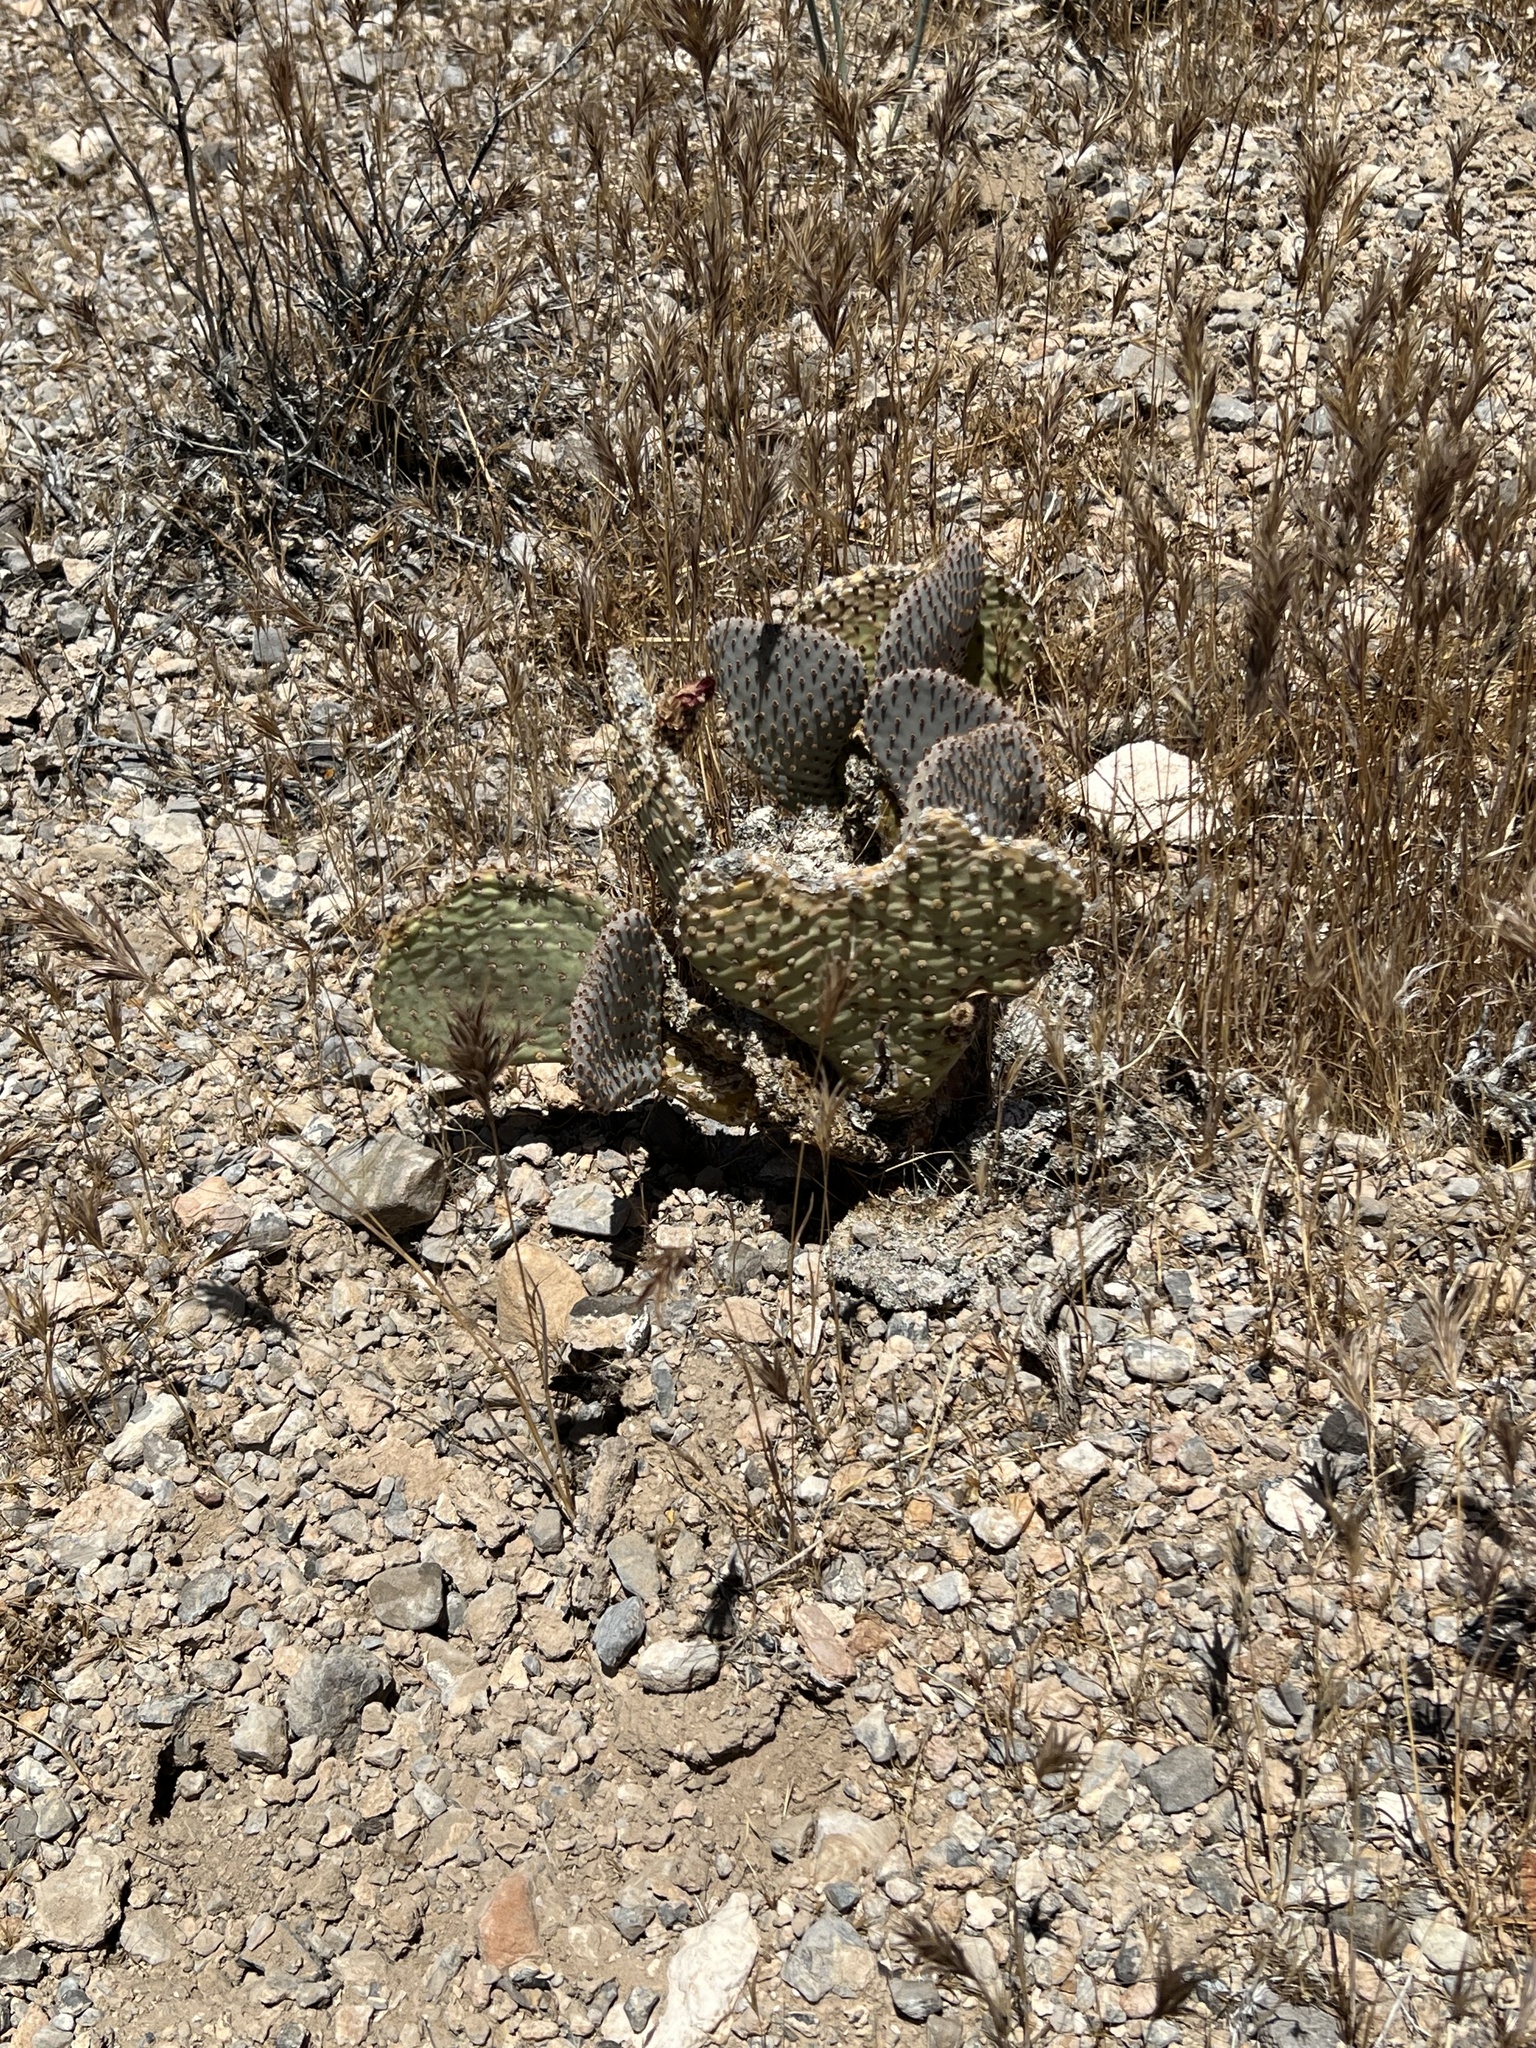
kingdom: Plantae
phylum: Tracheophyta
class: Magnoliopsida
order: Caryophyllales
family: Cactaceae
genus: Opuntia
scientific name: Opuntia basilaris
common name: Beavertail prickly-pear
